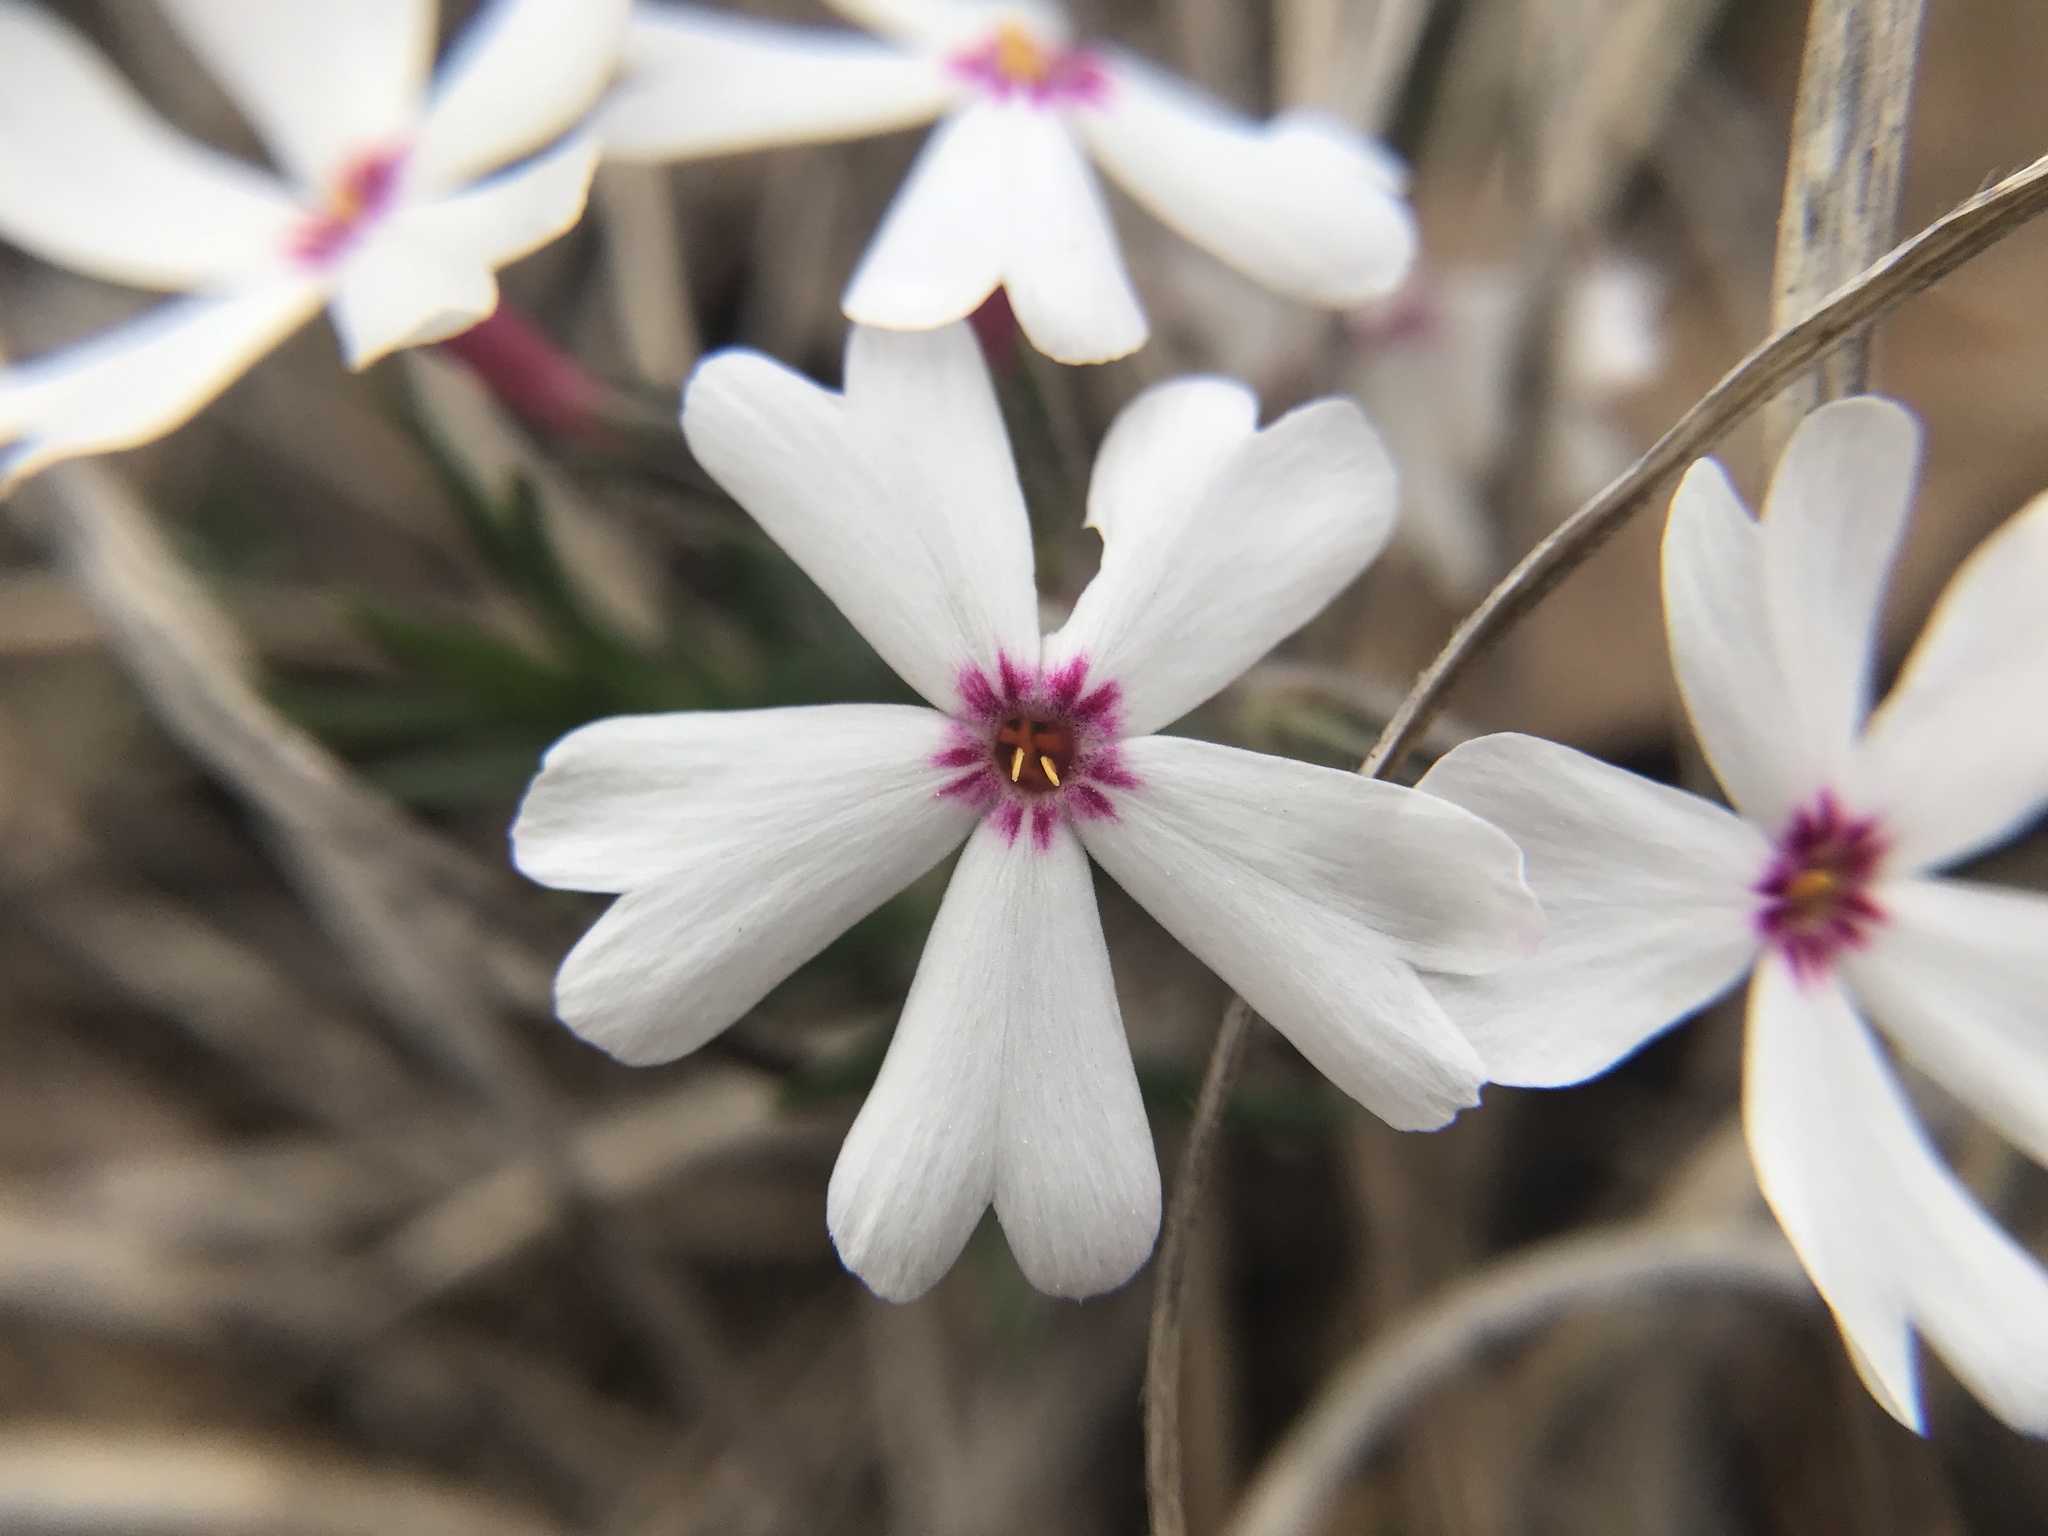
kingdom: Plantae
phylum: Tracheophyta
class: Magnoliopsida
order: Ericales
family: Polemoniaceae
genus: Phlox
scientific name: Phlox subulata
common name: Moss phlox
